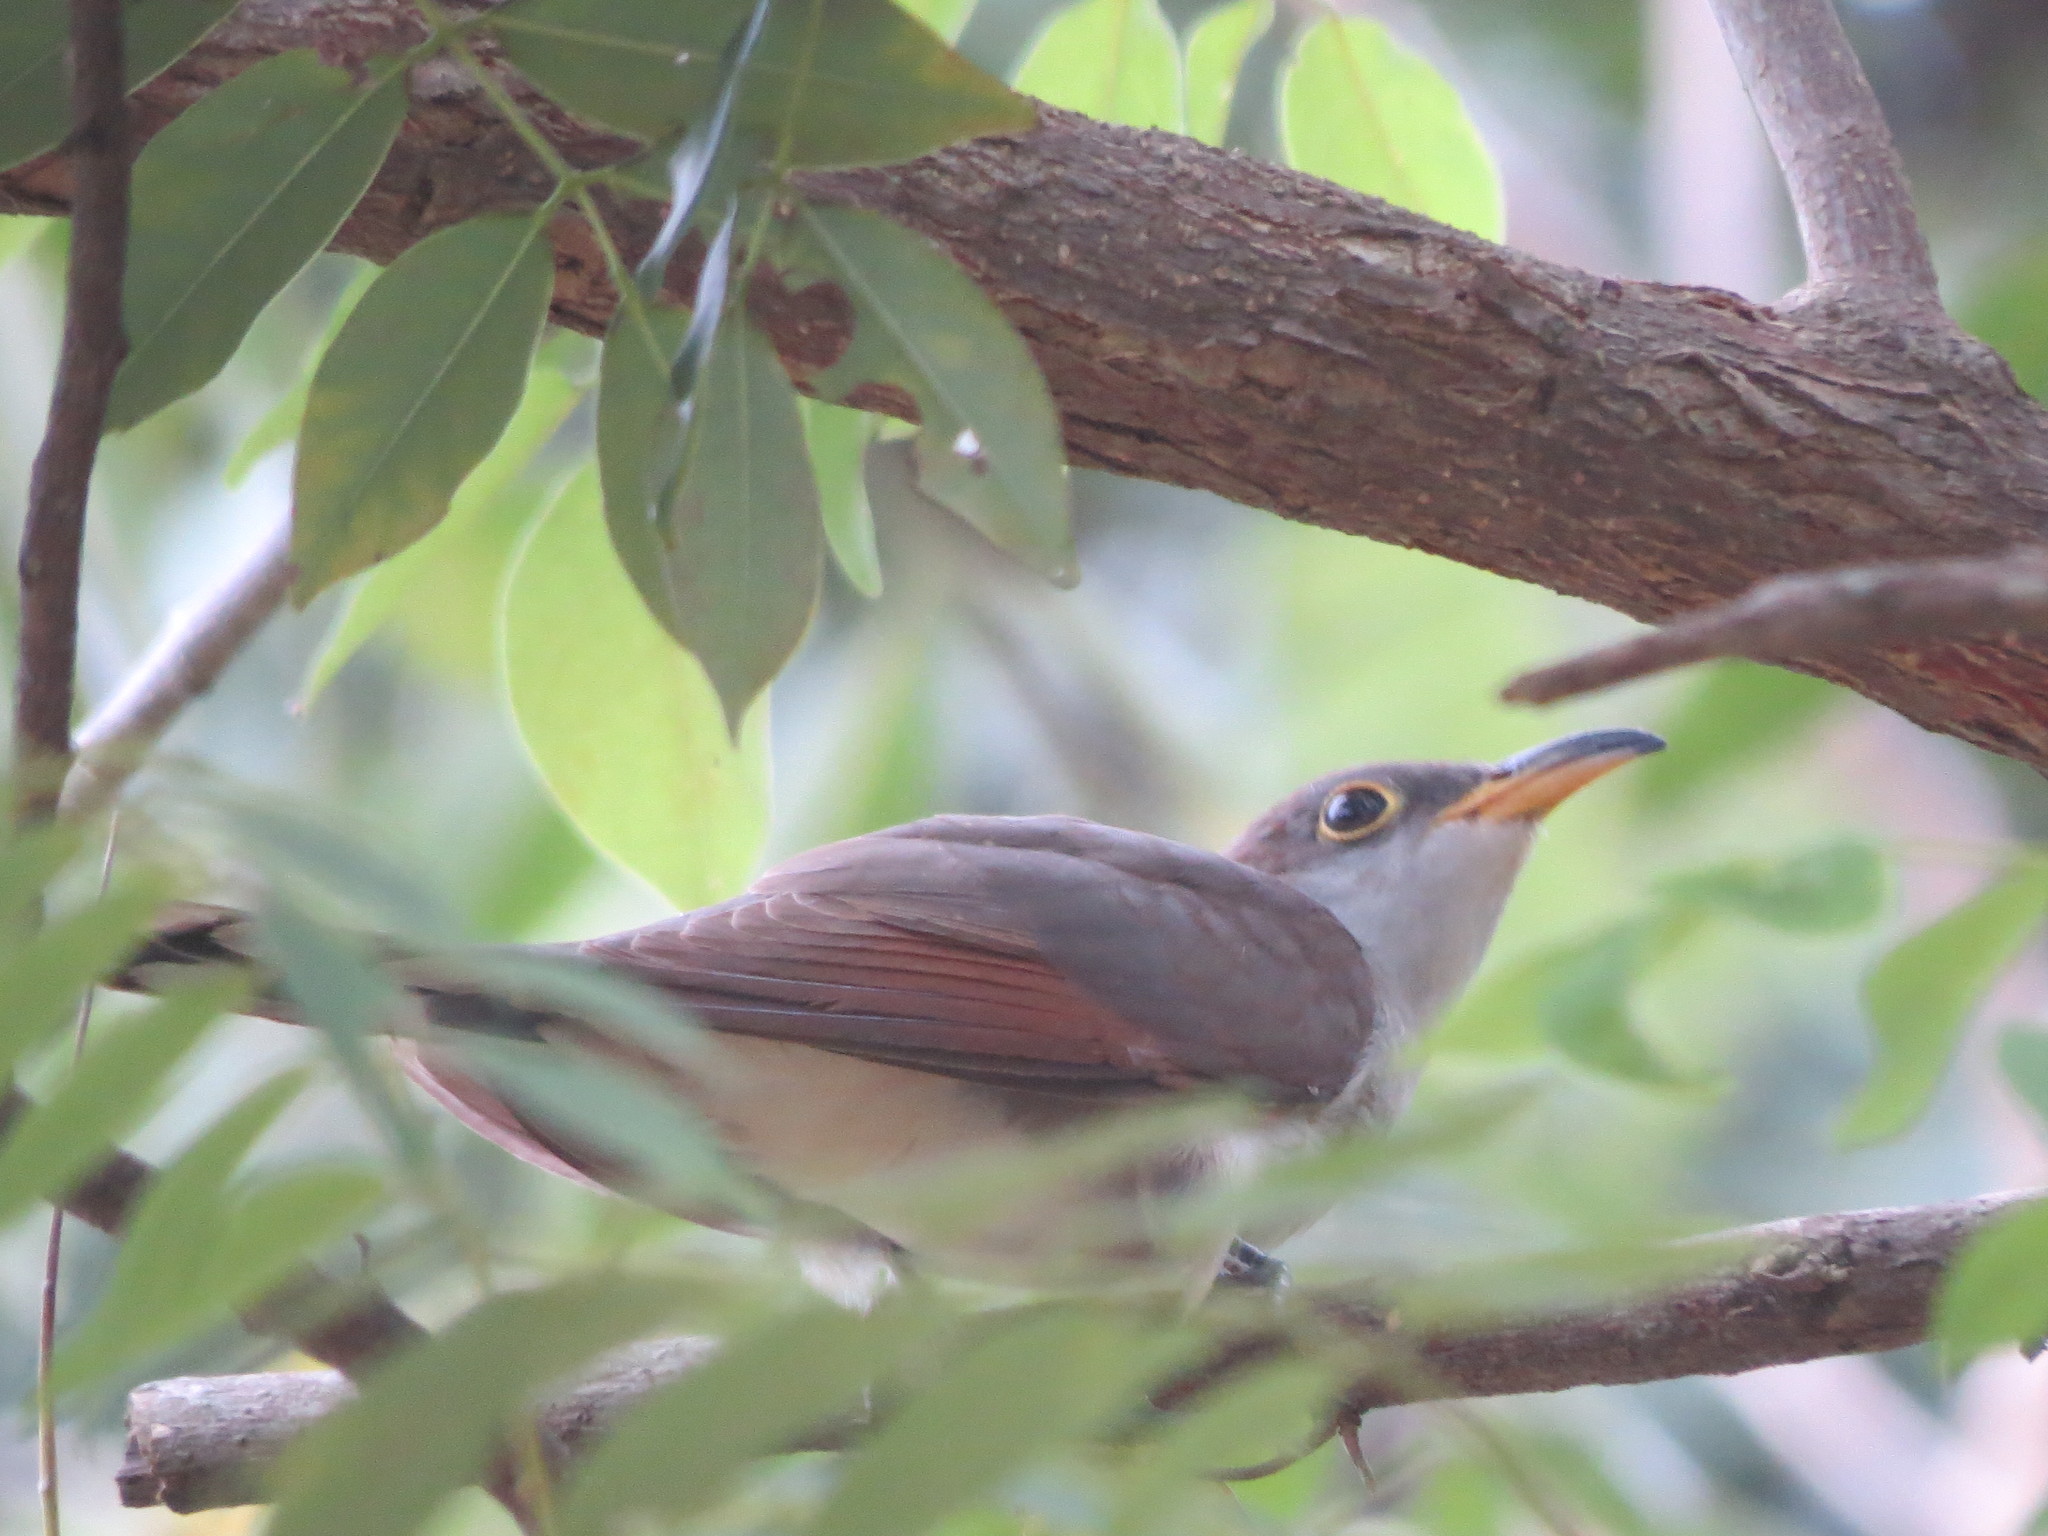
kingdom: Animalia
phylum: Chordata
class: Aves
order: Cuculiformes
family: Cuculidae
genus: Coccyzus
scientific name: Coccyzus americanus
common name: Yellow-billed cuckoo
